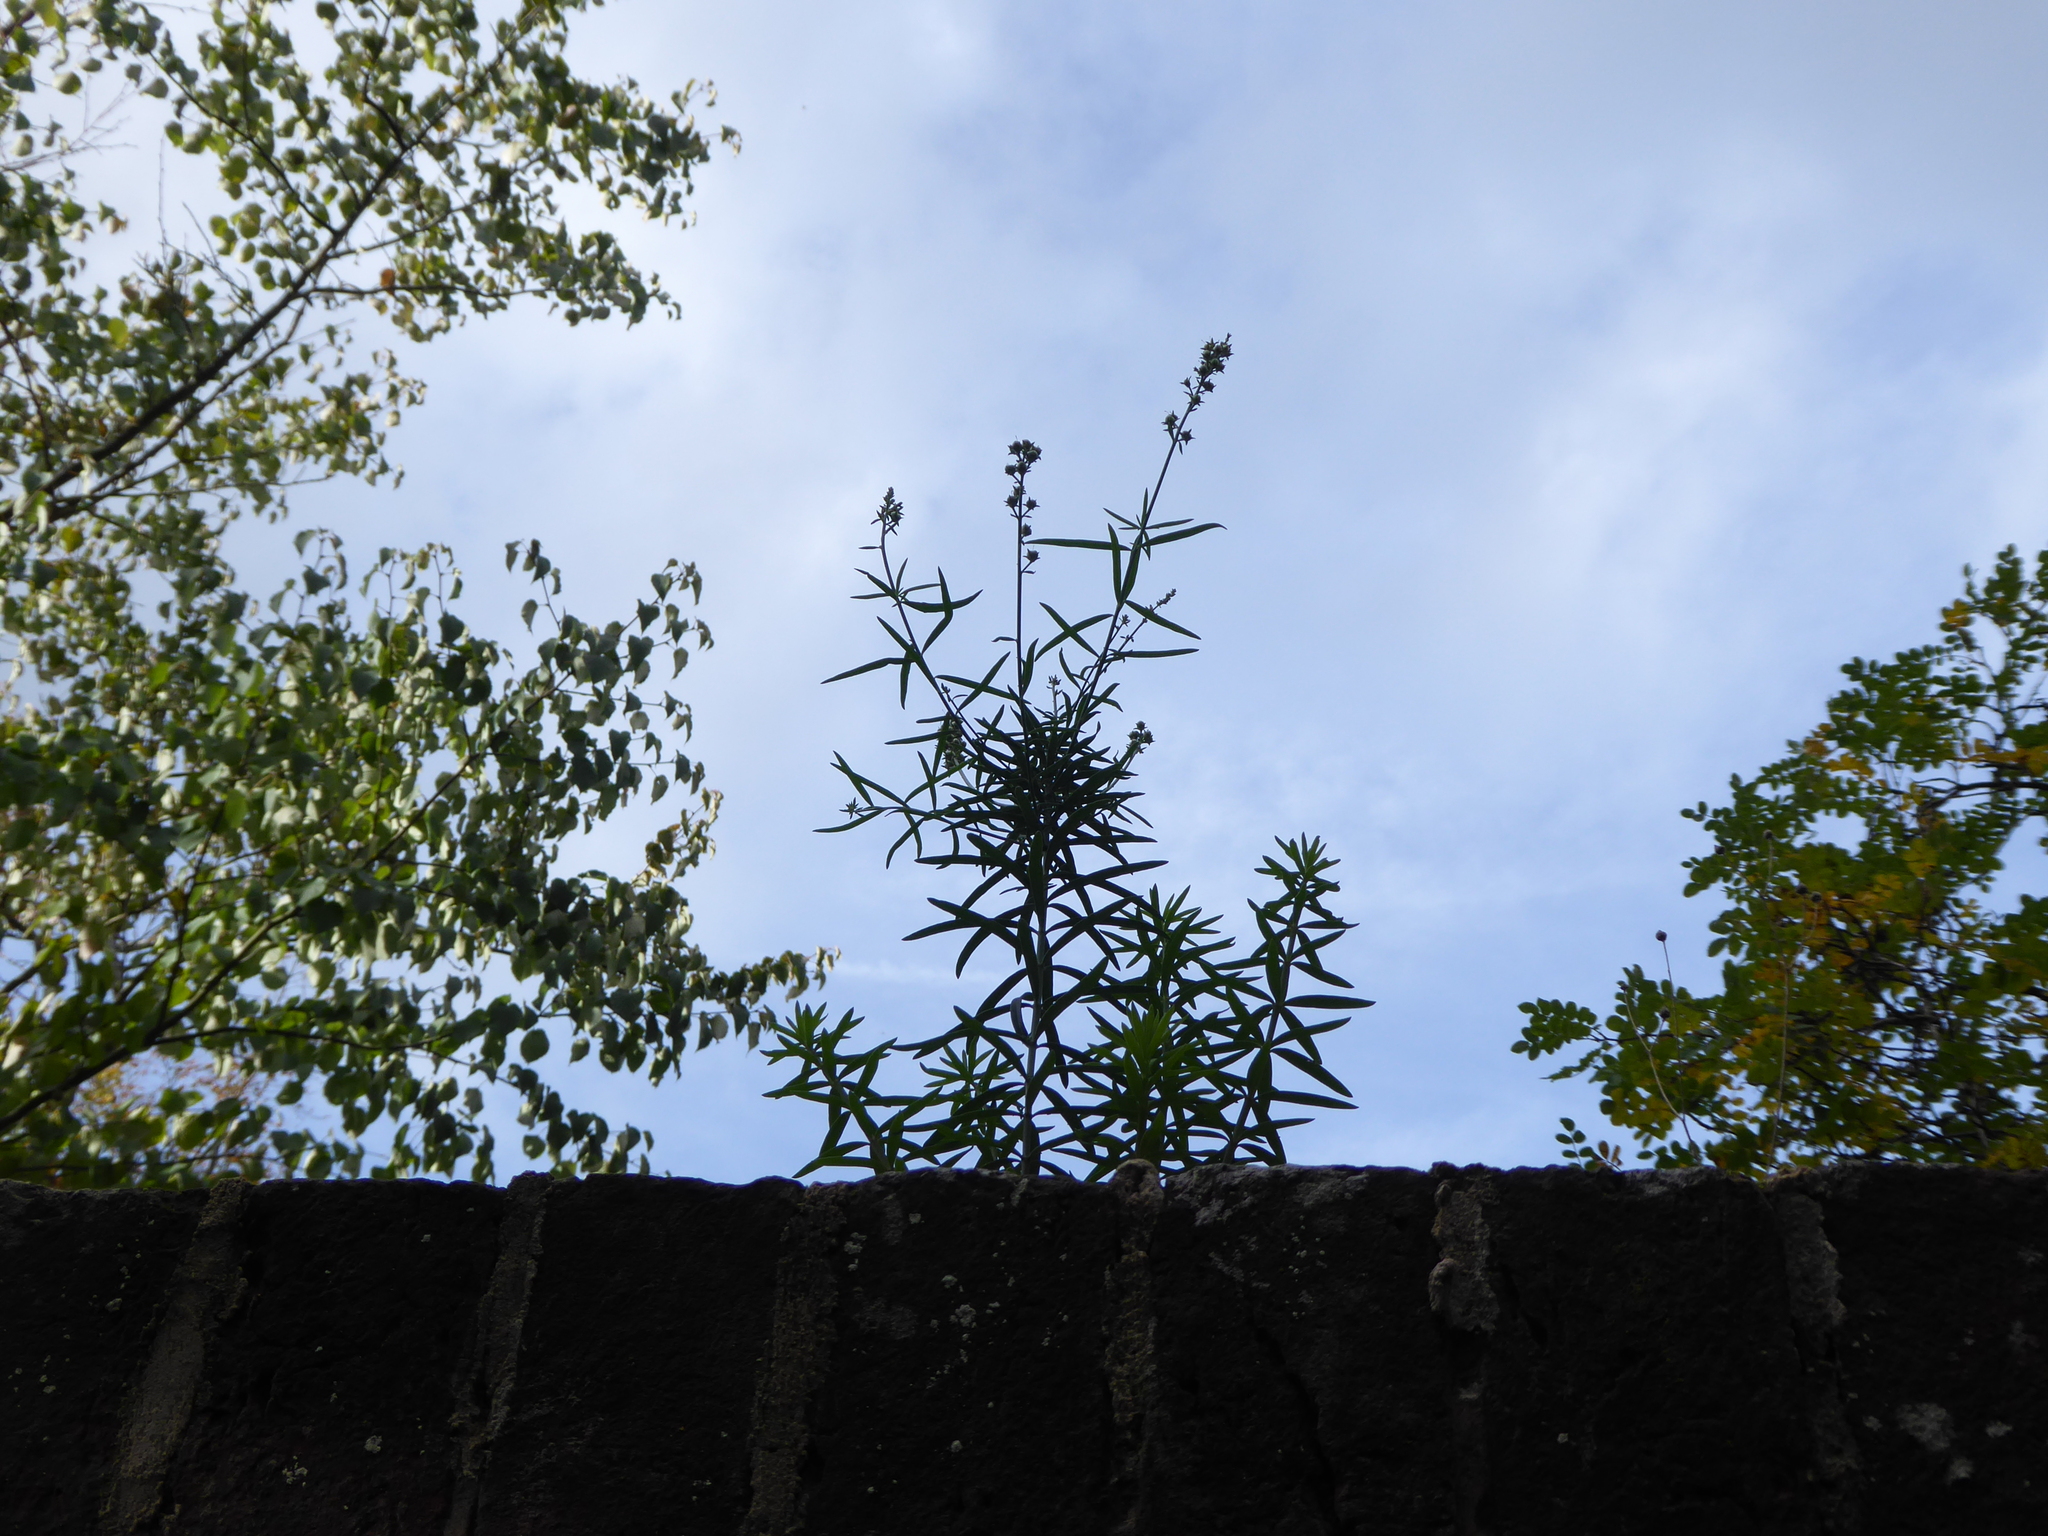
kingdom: Plantae
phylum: Tracheophyta
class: Magnoliopsida
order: Lamiales
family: Plantaginaceae
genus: Linaria
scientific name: Linaria purpurea
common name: Purple toadflax
